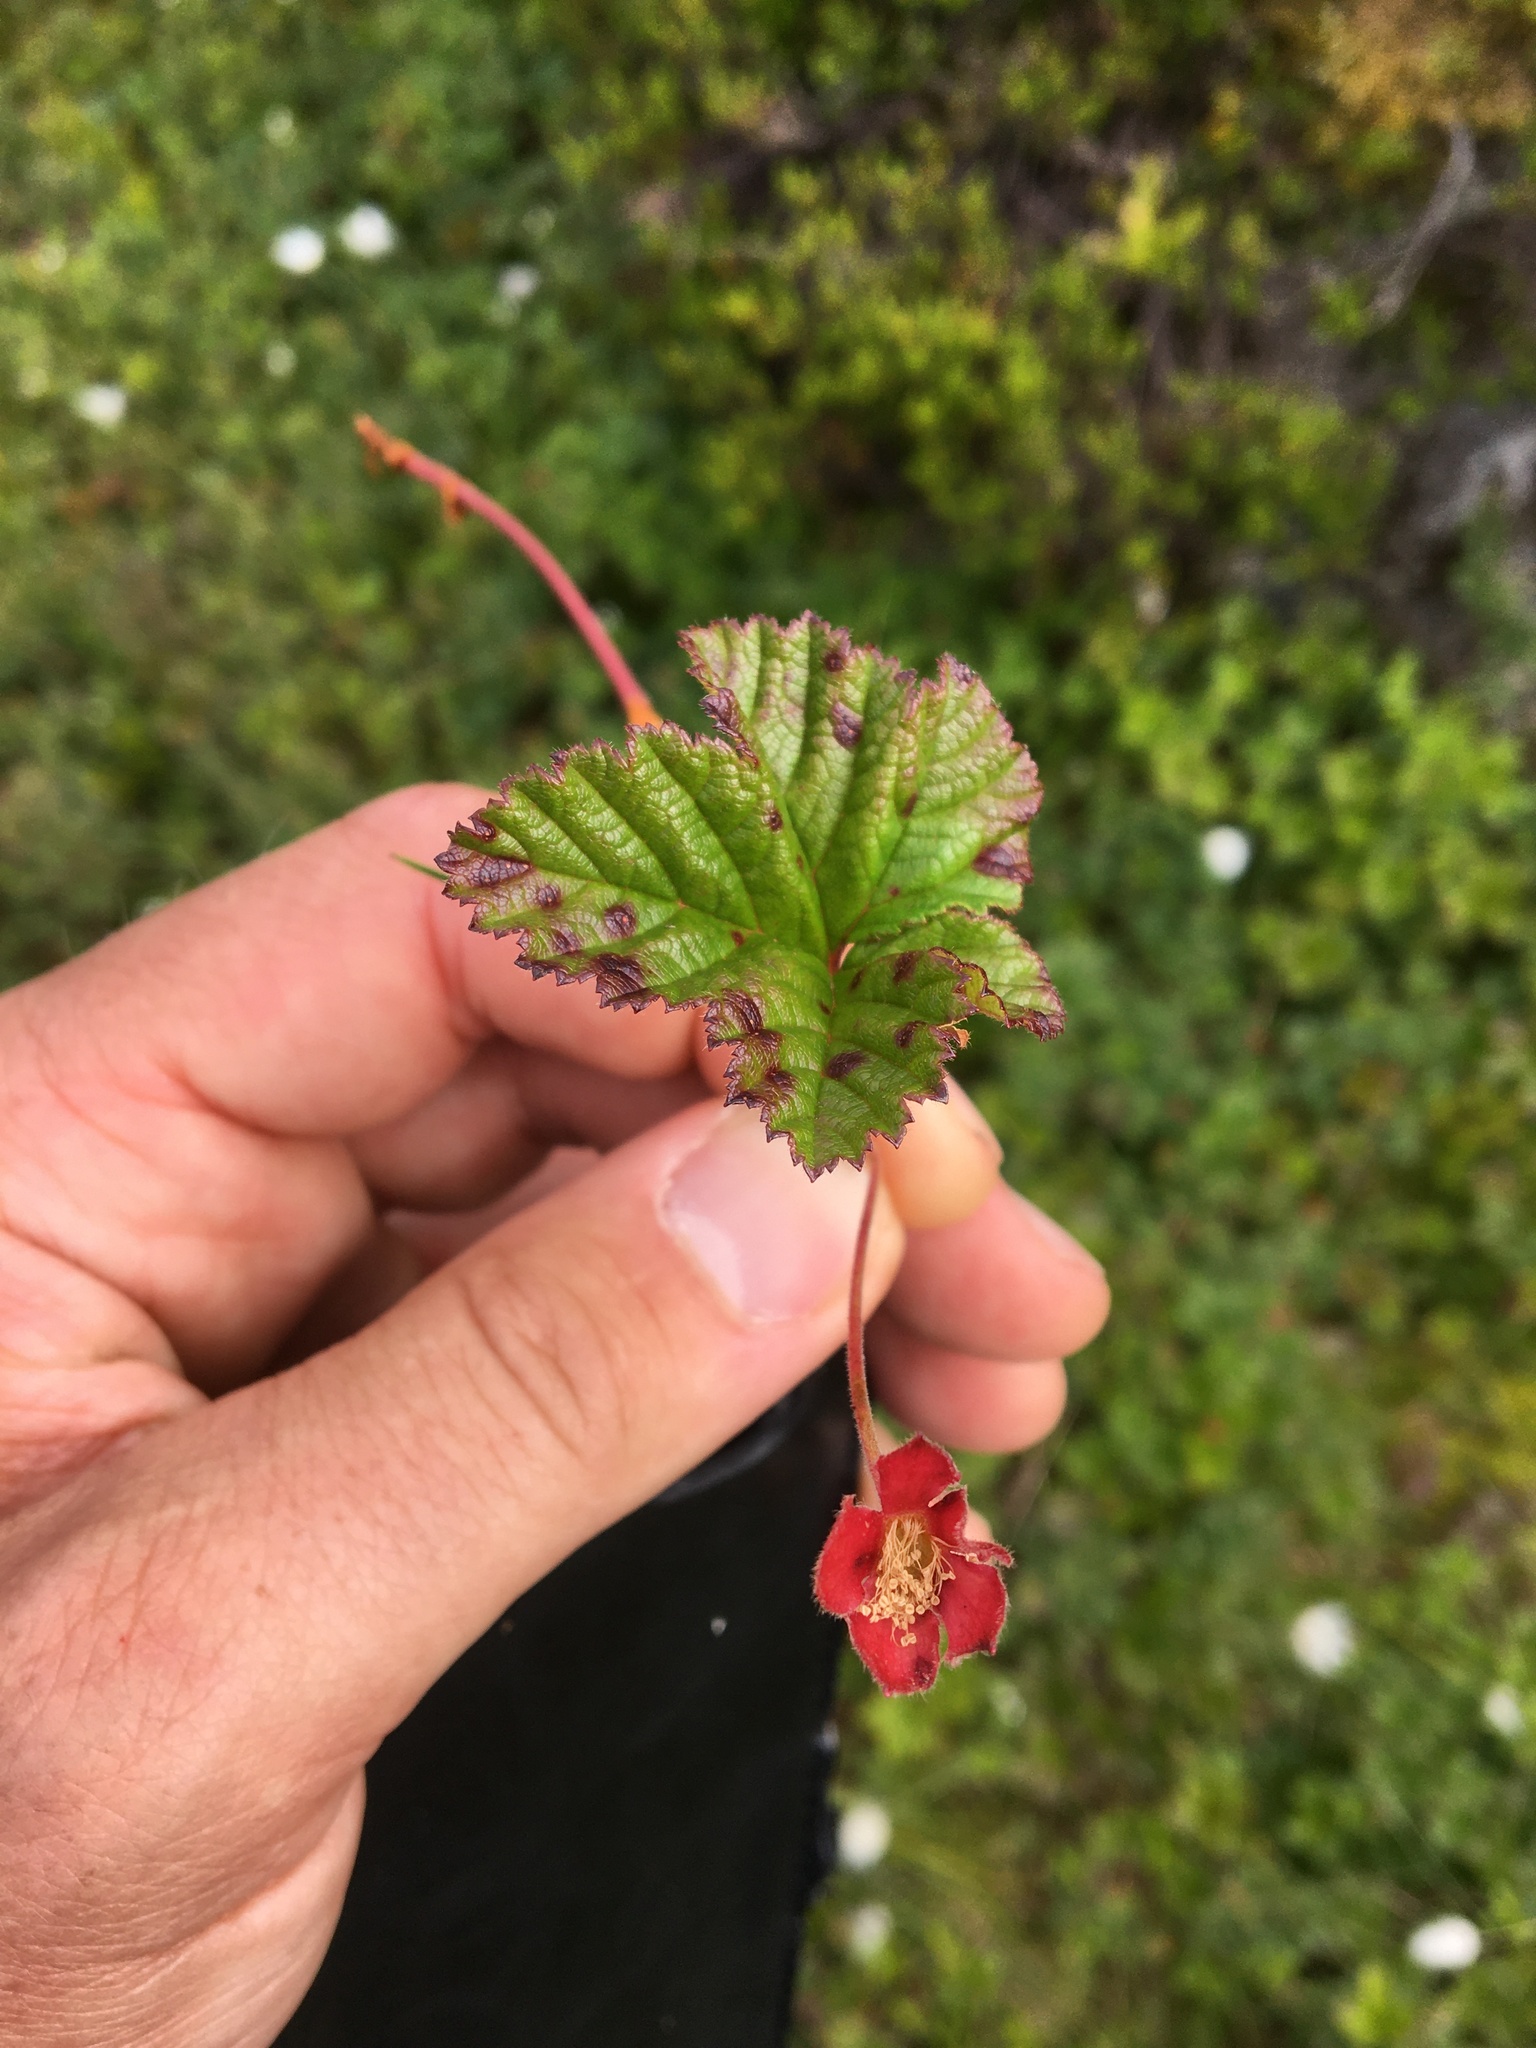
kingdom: Plantae
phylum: Tracheophyta
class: Magnoliopsida
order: Rosales
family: Rosaceae
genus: Rubus
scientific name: Rubus chamaemorus
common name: Cloudberry
